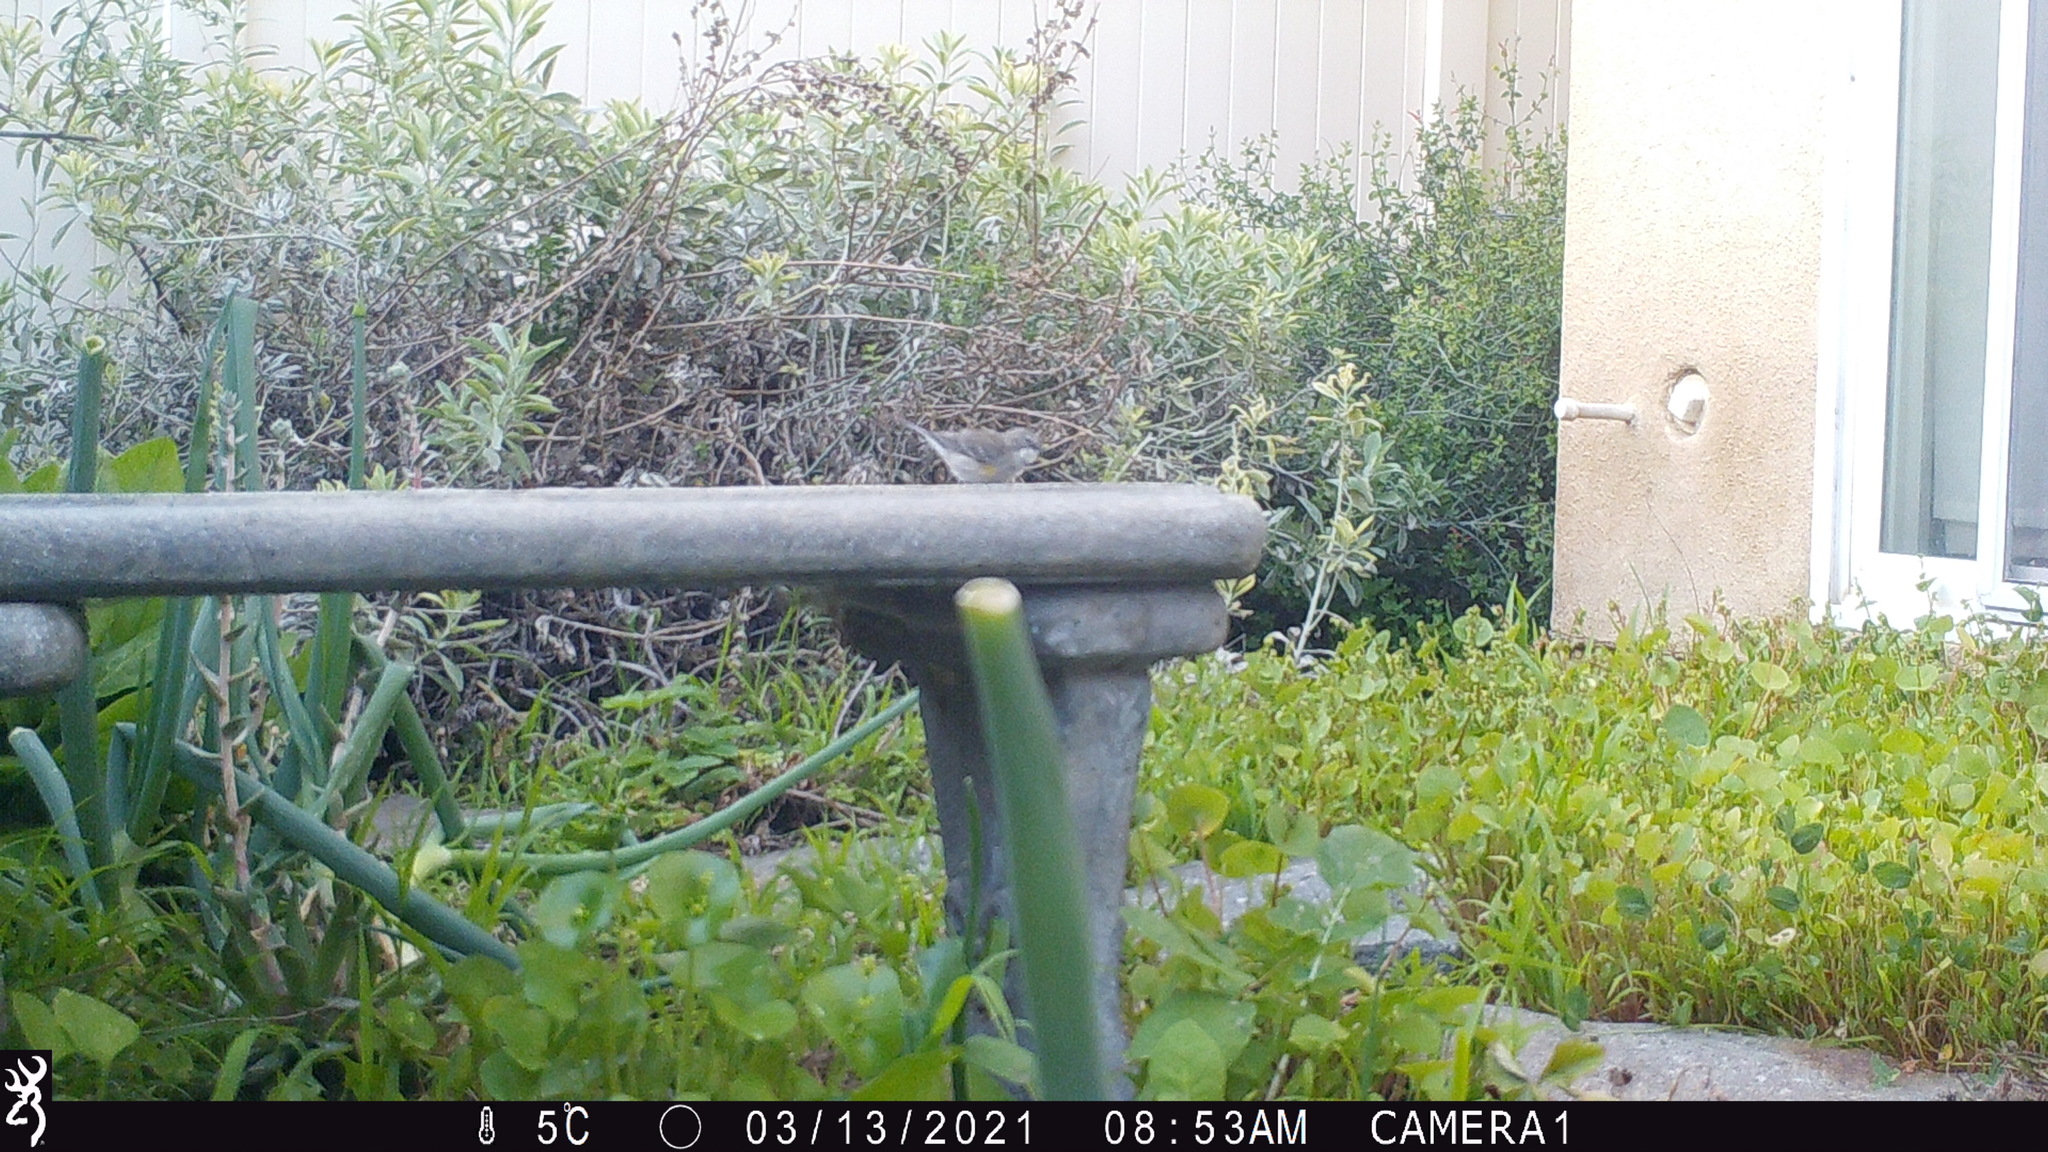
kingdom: Animalia
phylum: Chordata
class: Aves
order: Passeriformes
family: Parulidae
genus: Setophaga
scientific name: Setophaga coronata
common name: Myrtle warbler
